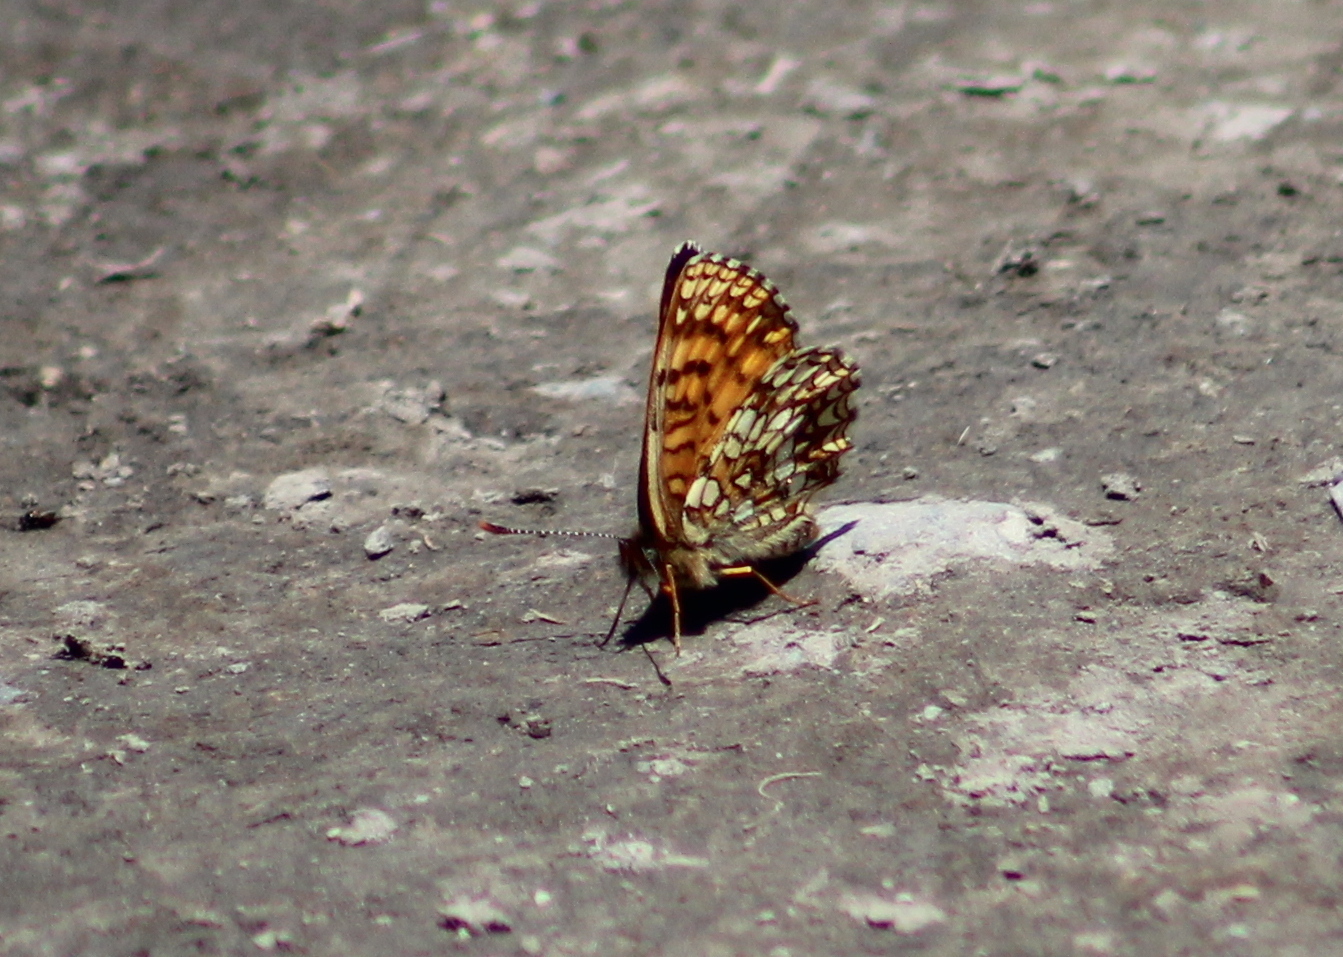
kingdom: Animalia
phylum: Arthropoda
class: Insecta
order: Lepidoptera
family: Nymphalidae
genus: Melitaea
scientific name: Melitaea diamina
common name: False heath fritillary
